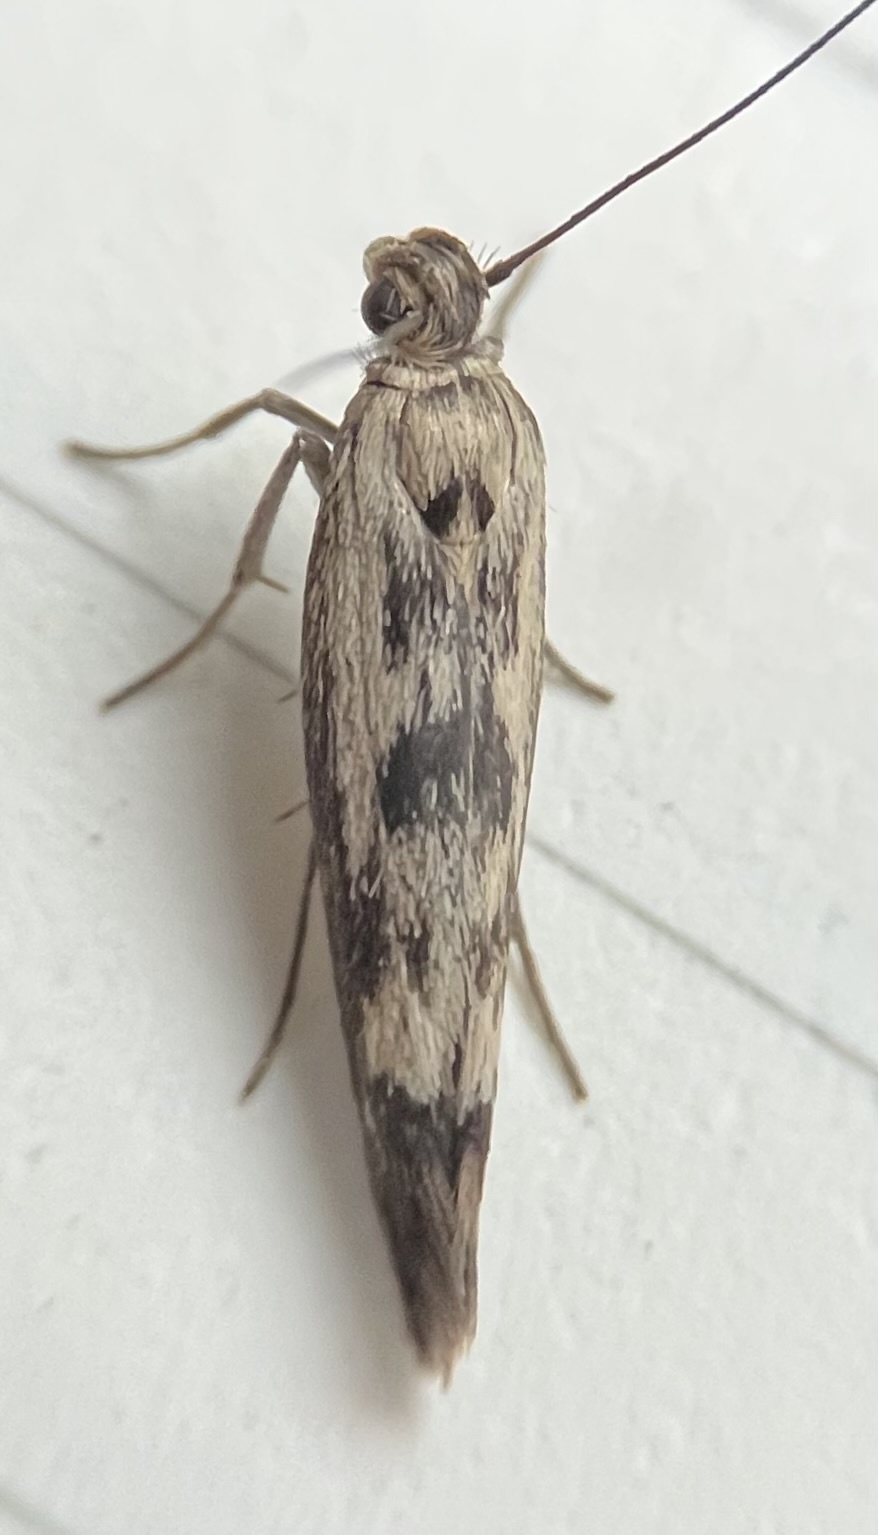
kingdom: Animalia
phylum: Arthropoda
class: Insecta
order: Lepidoptera
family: Scythrididae
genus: Scythris
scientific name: Scythris limbella
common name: Goosefoot owlet
